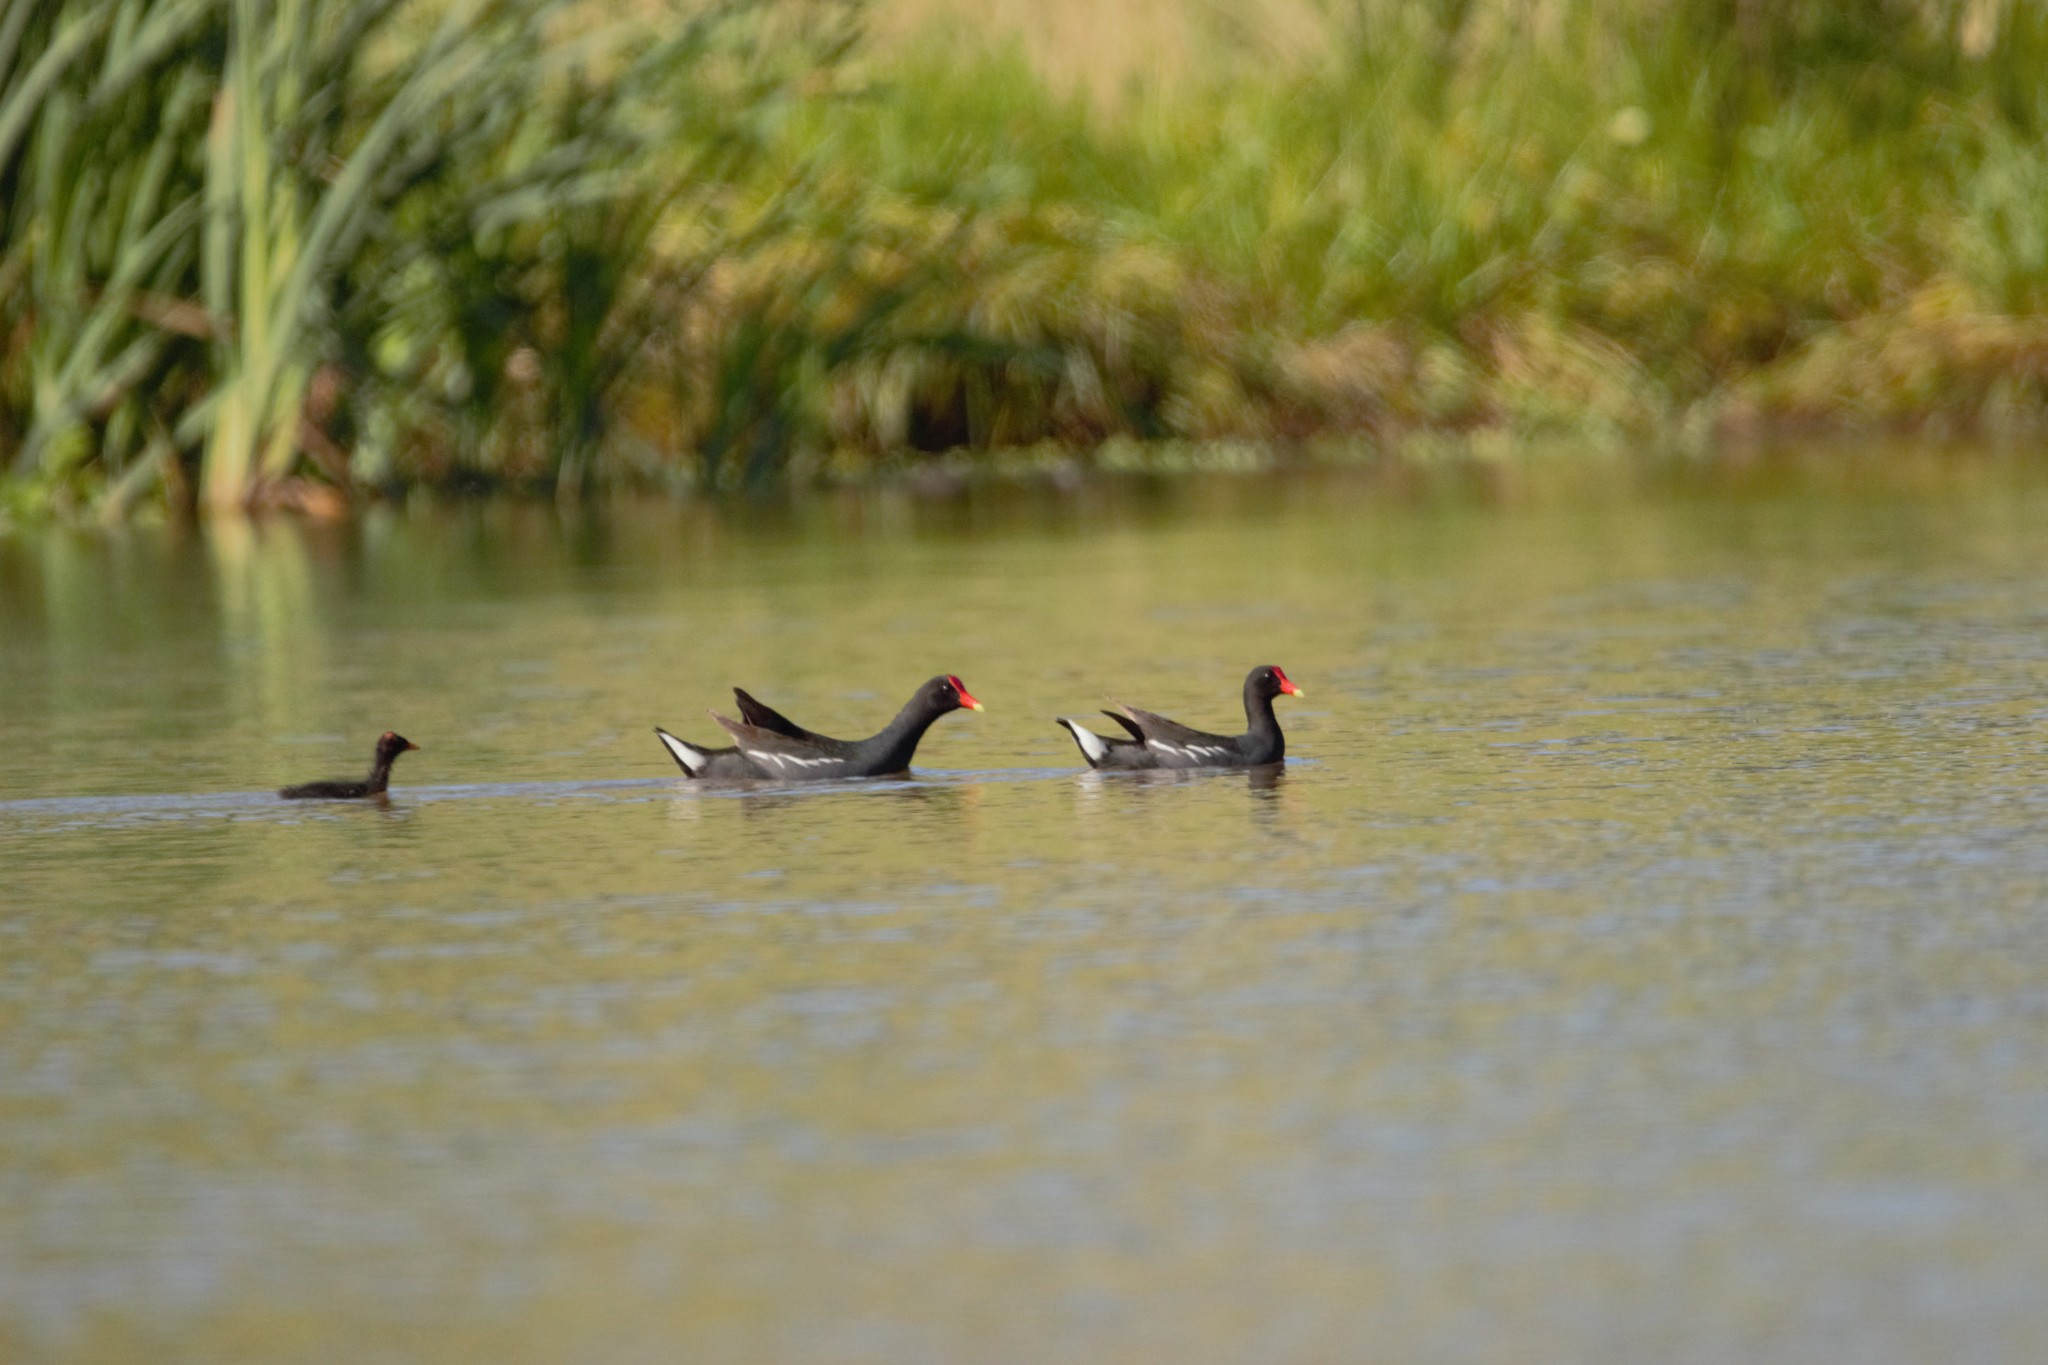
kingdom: Animalia
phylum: Chordata
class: Aves
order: Gruiformes
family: Rallidae
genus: Gallinula
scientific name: Gallinula chloropus
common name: Common moorhen
